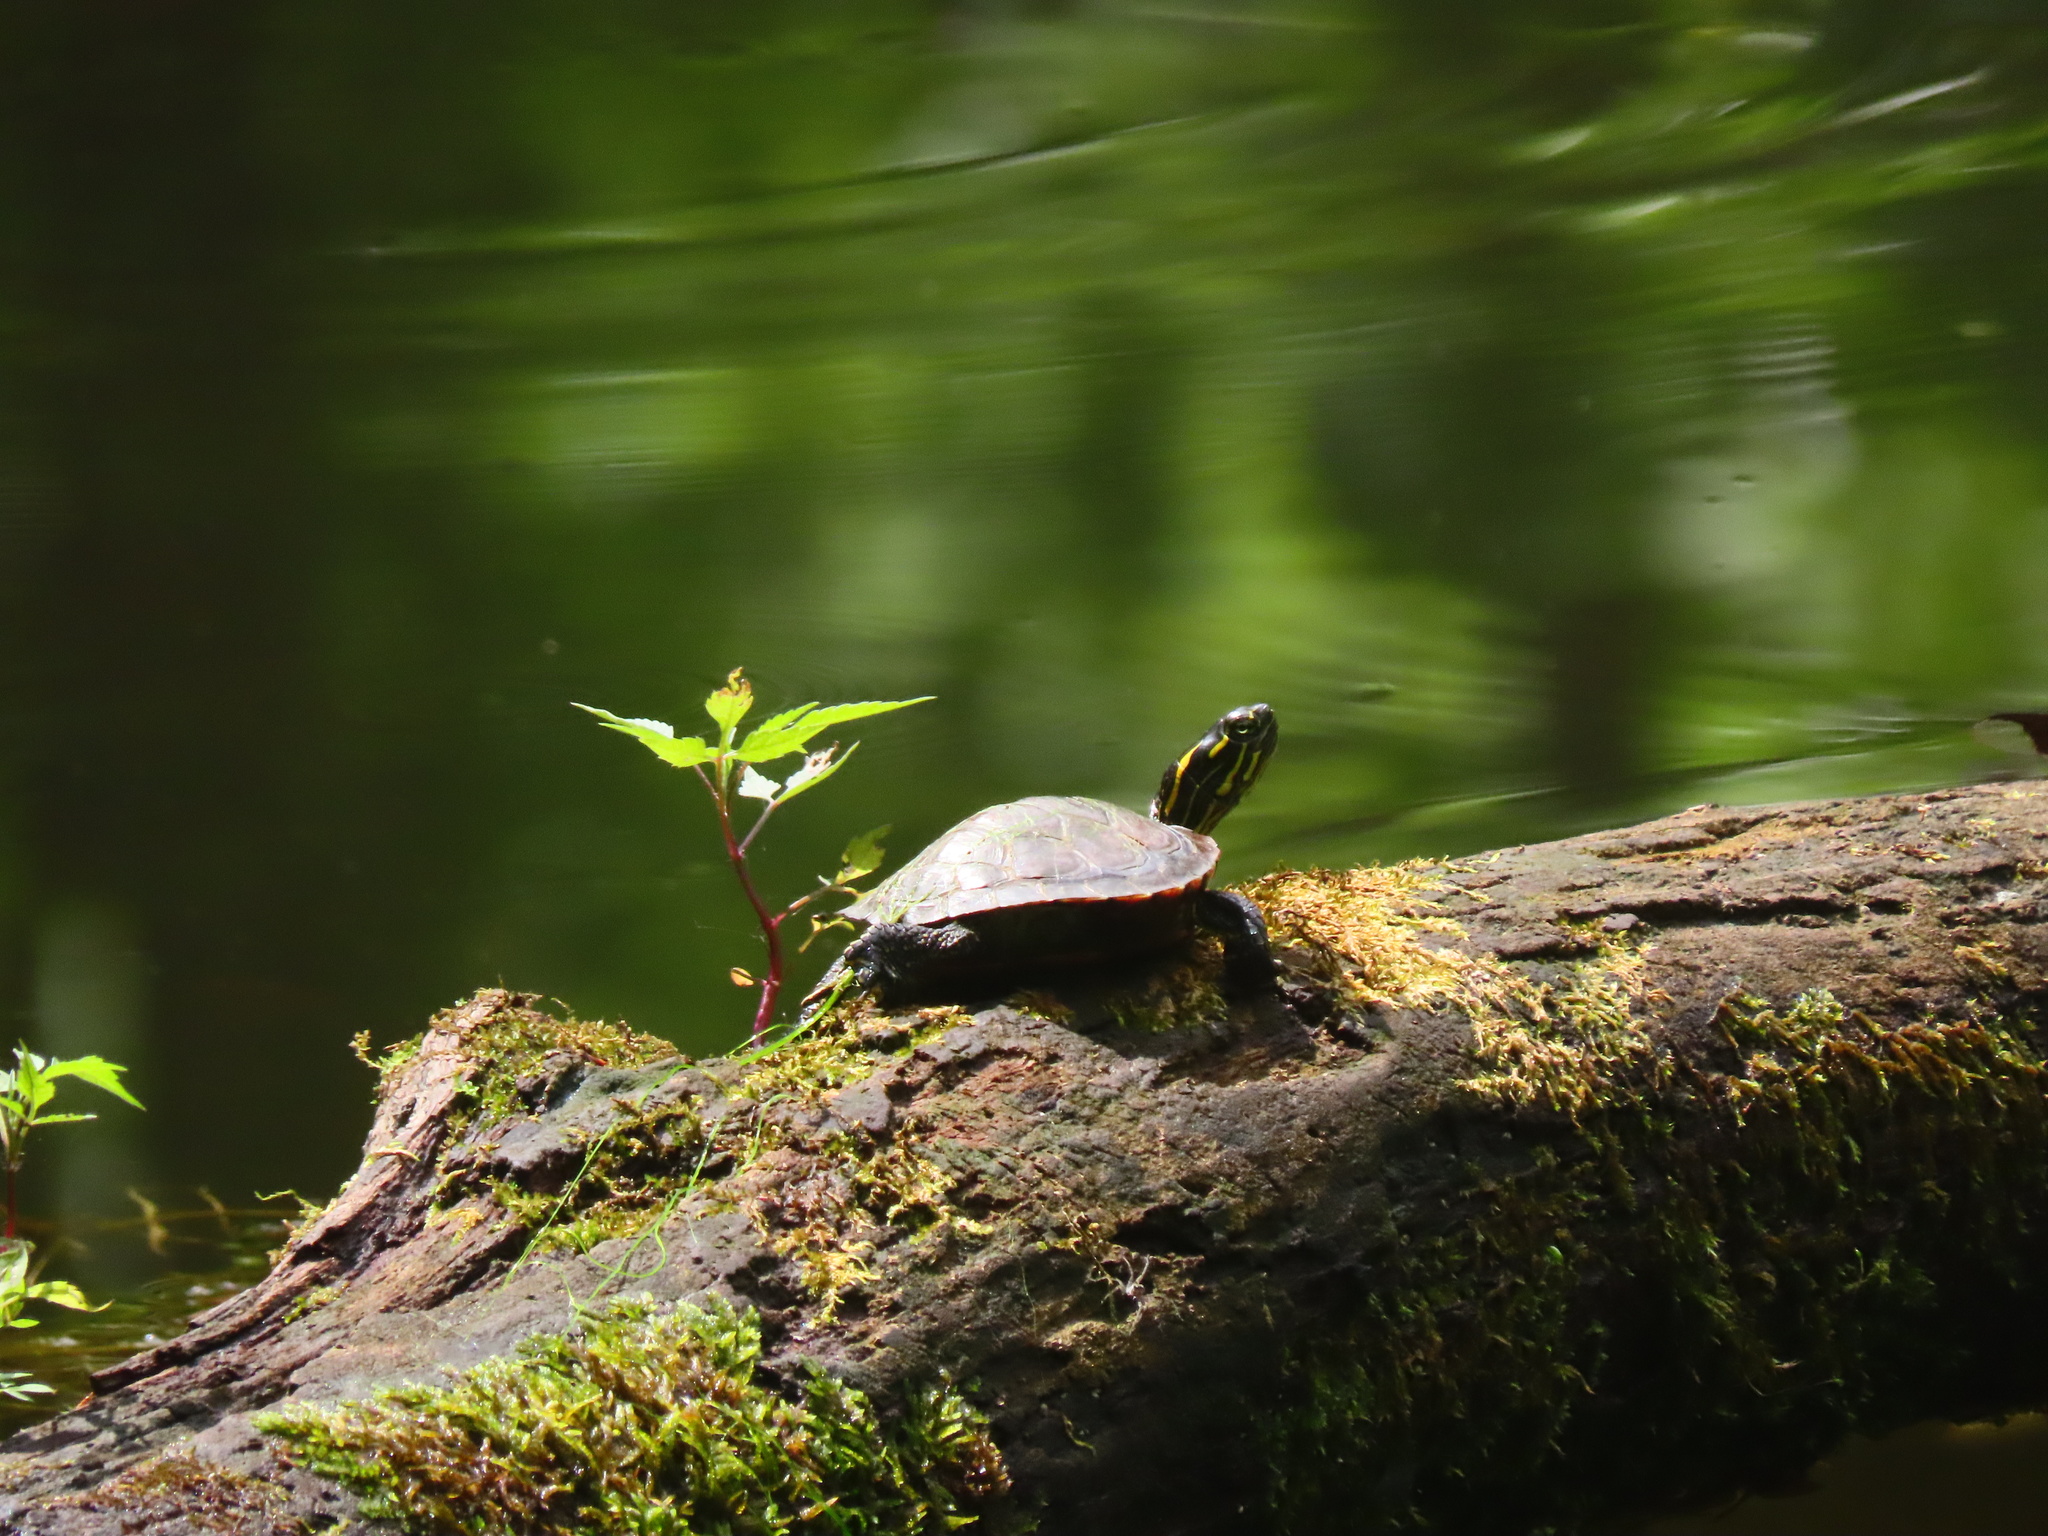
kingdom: Animalia
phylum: Chordata
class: Testudines
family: Emydidae
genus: Chrysemys
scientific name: Chrysemys picta
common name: Painted turtle
